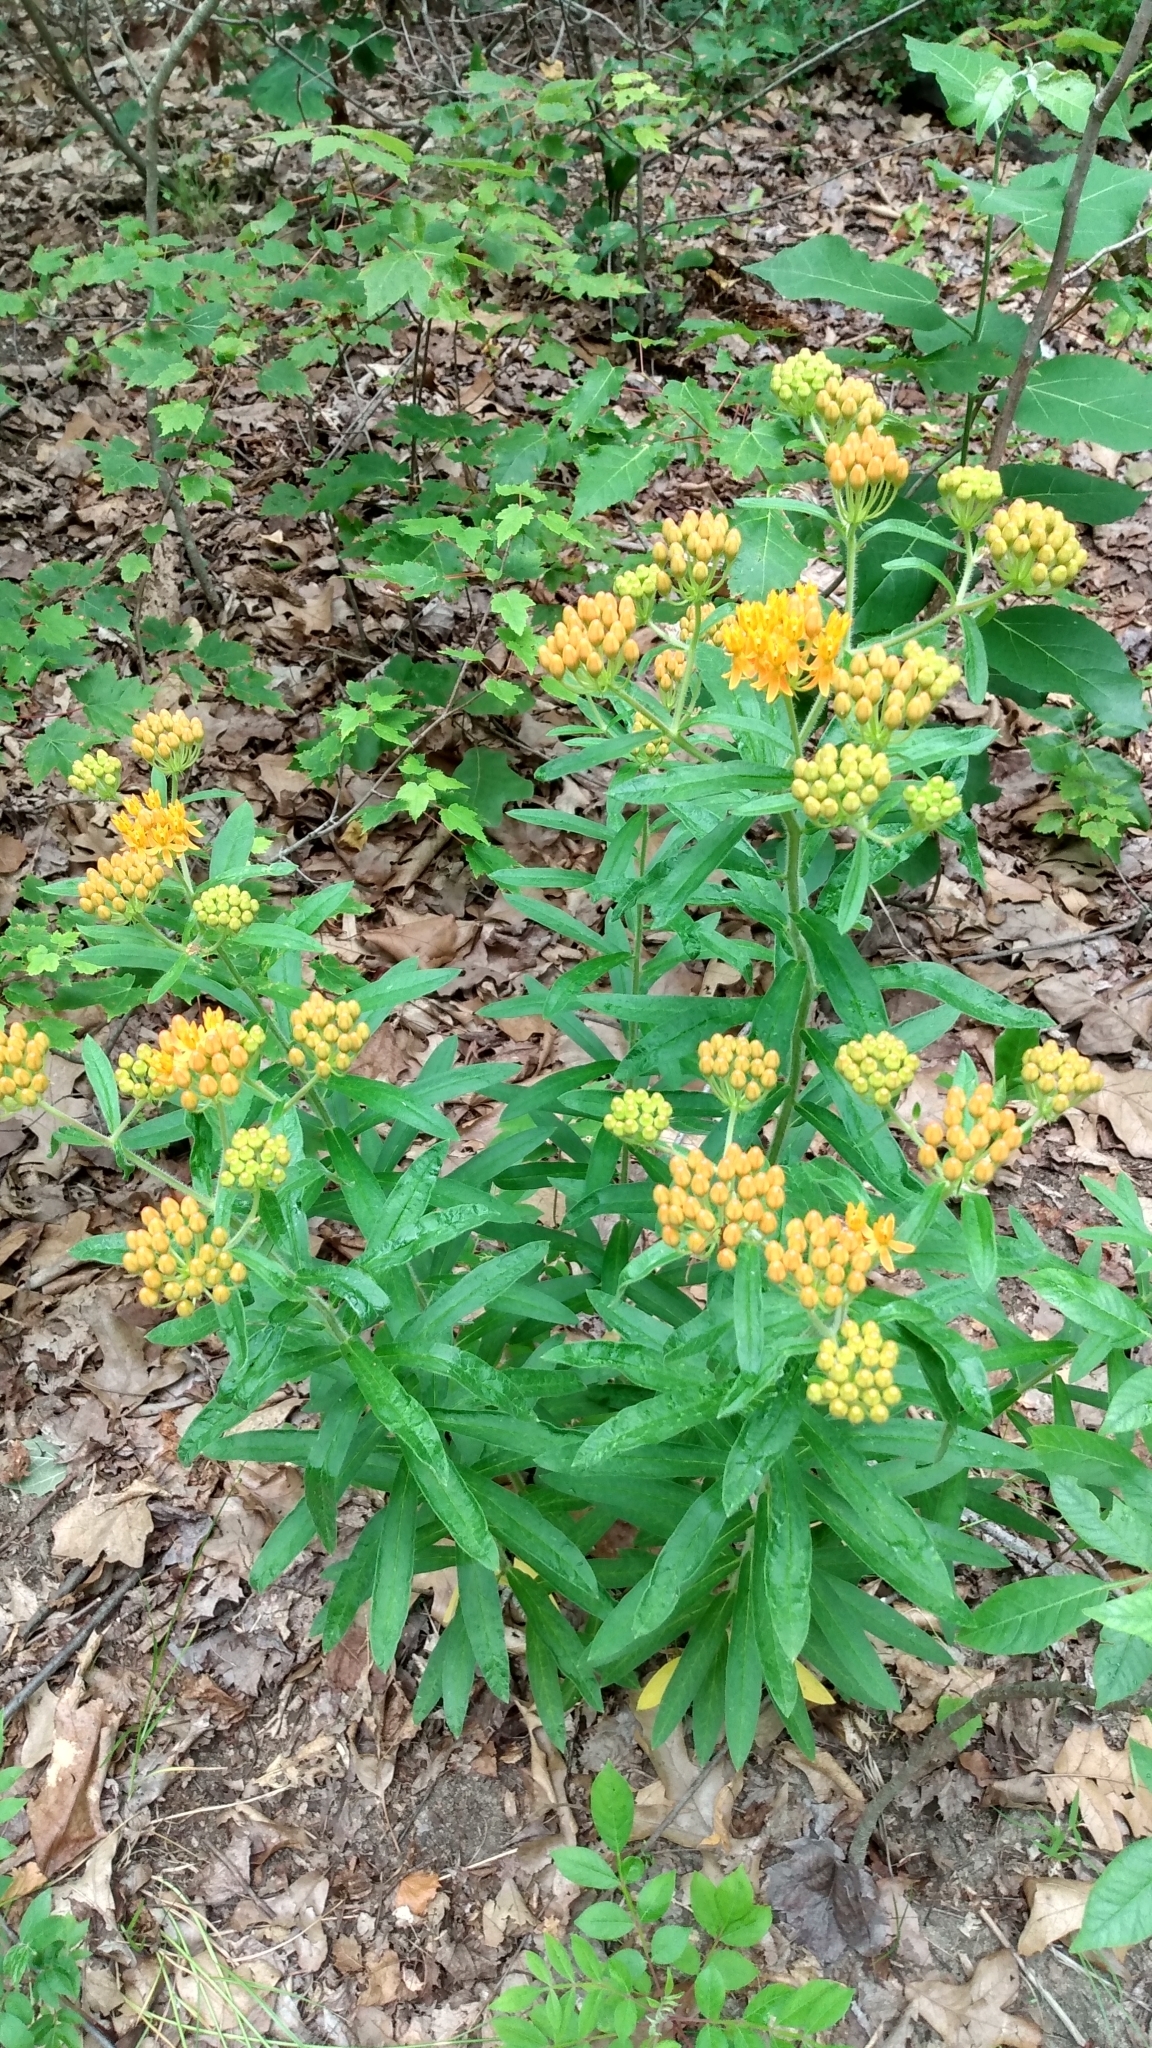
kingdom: Plantae
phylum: Tracheophyta
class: Magnoliopsida
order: Gentianales
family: Apocynaceae
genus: Asclepias
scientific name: Asclepias tuberosa
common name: Butterfly milkweed
